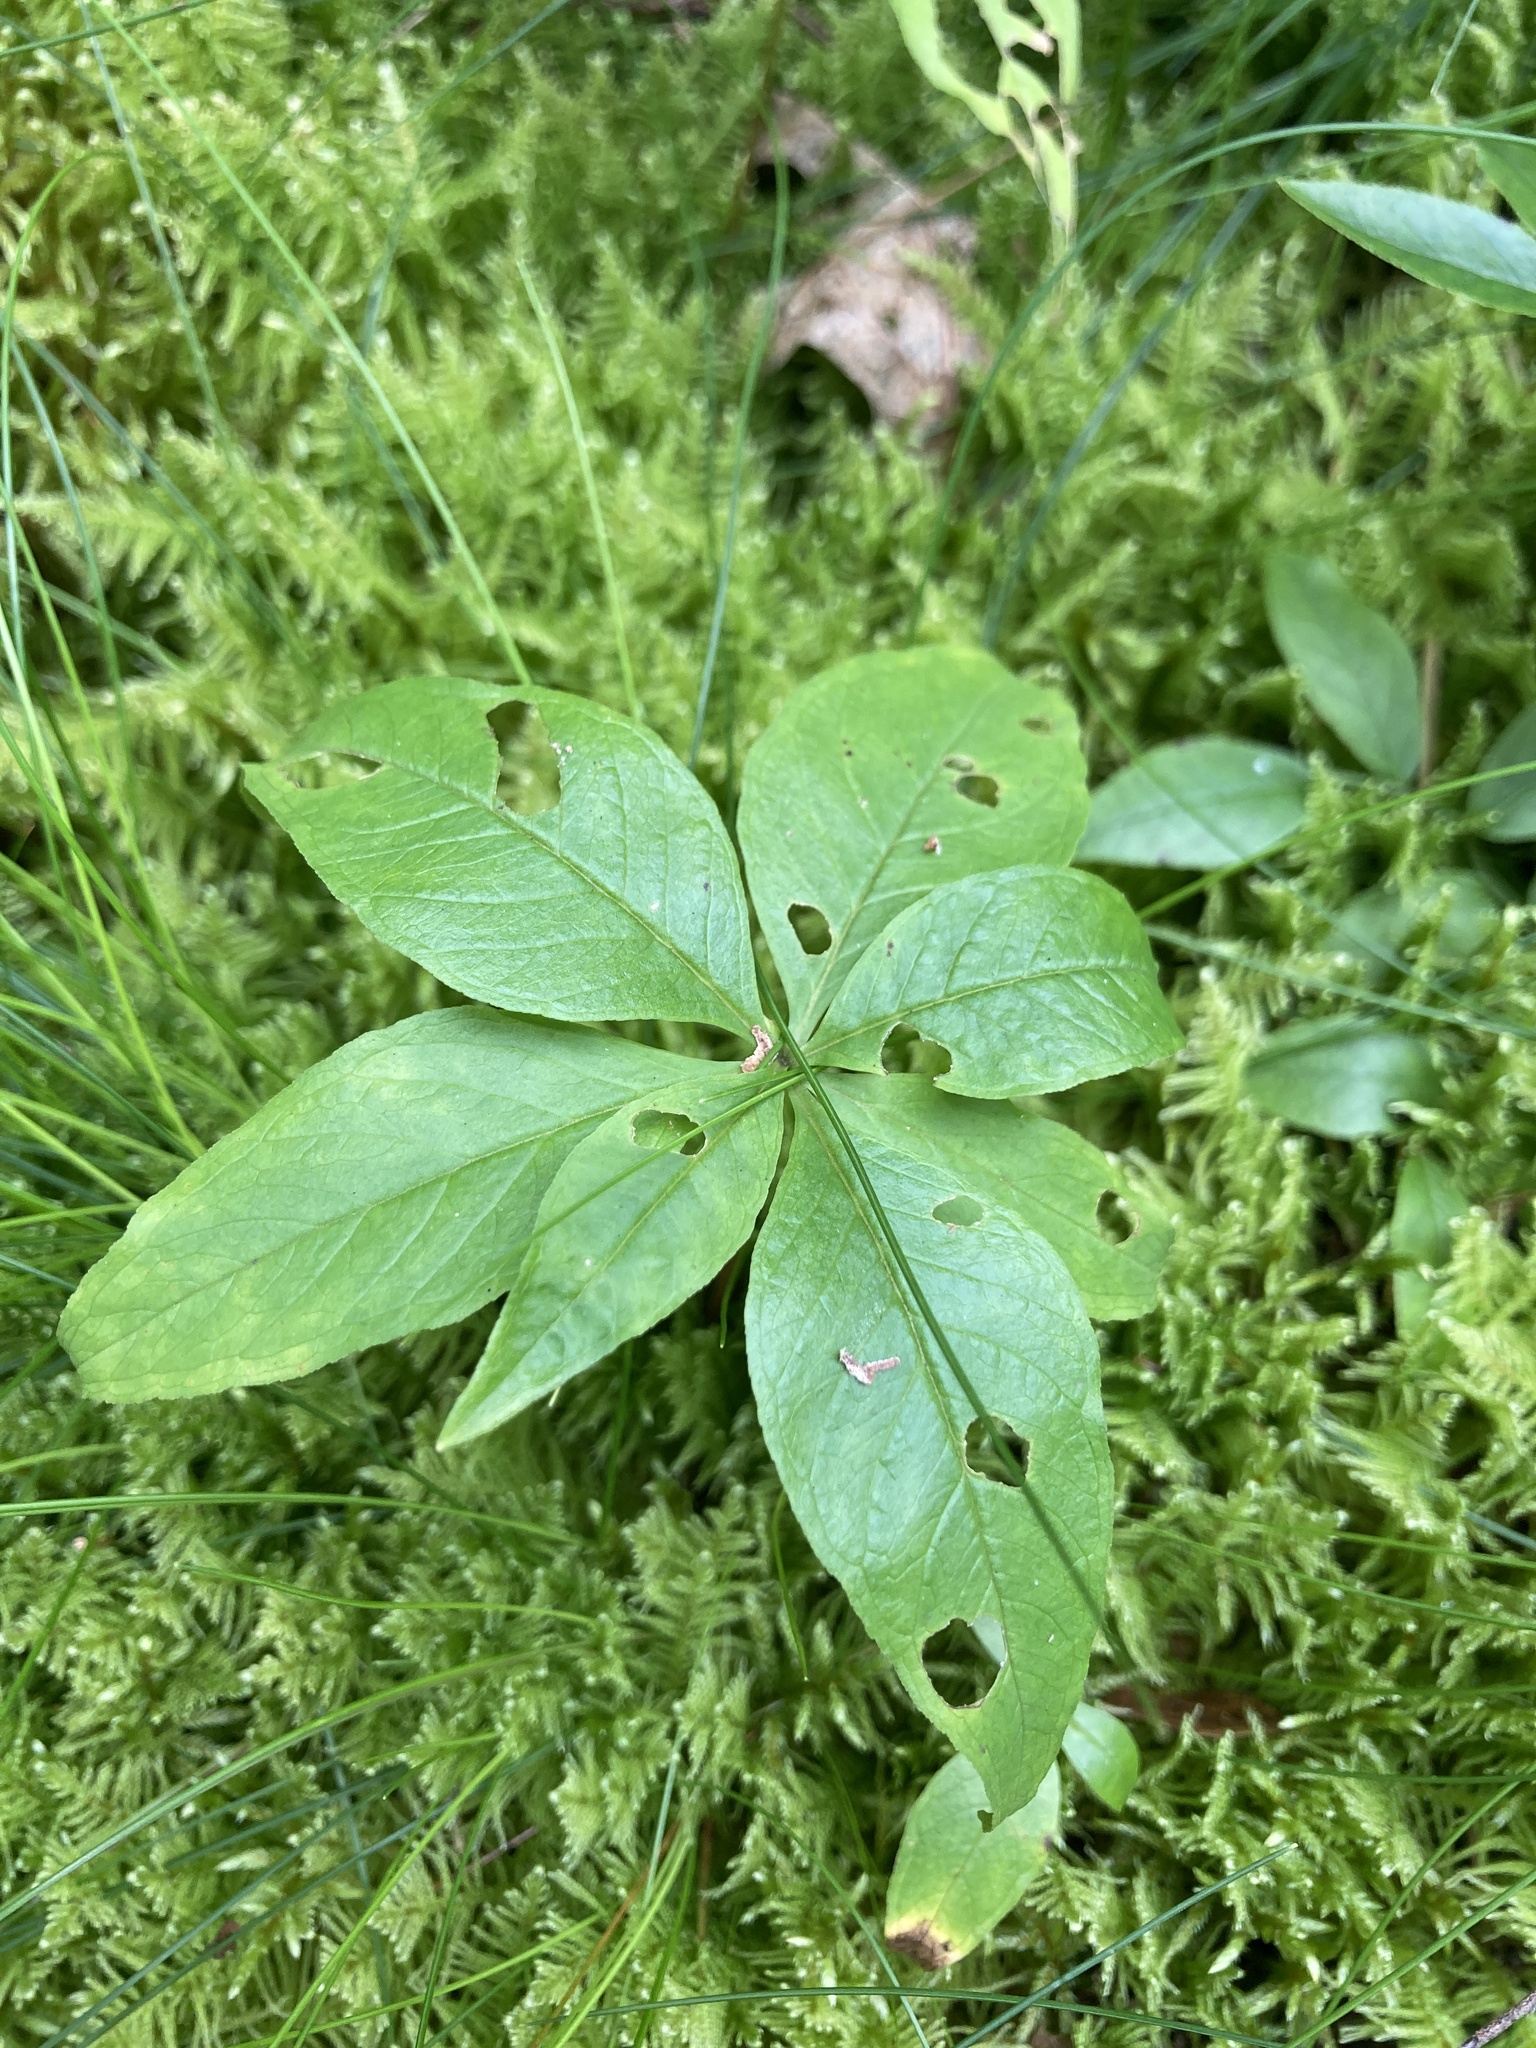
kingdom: Plantae
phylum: Tracheophyta
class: Magnoliopsida
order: Ericales
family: Primulaceae
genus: Lysimachia
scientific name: Lysimachia borealis
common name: American starflower
